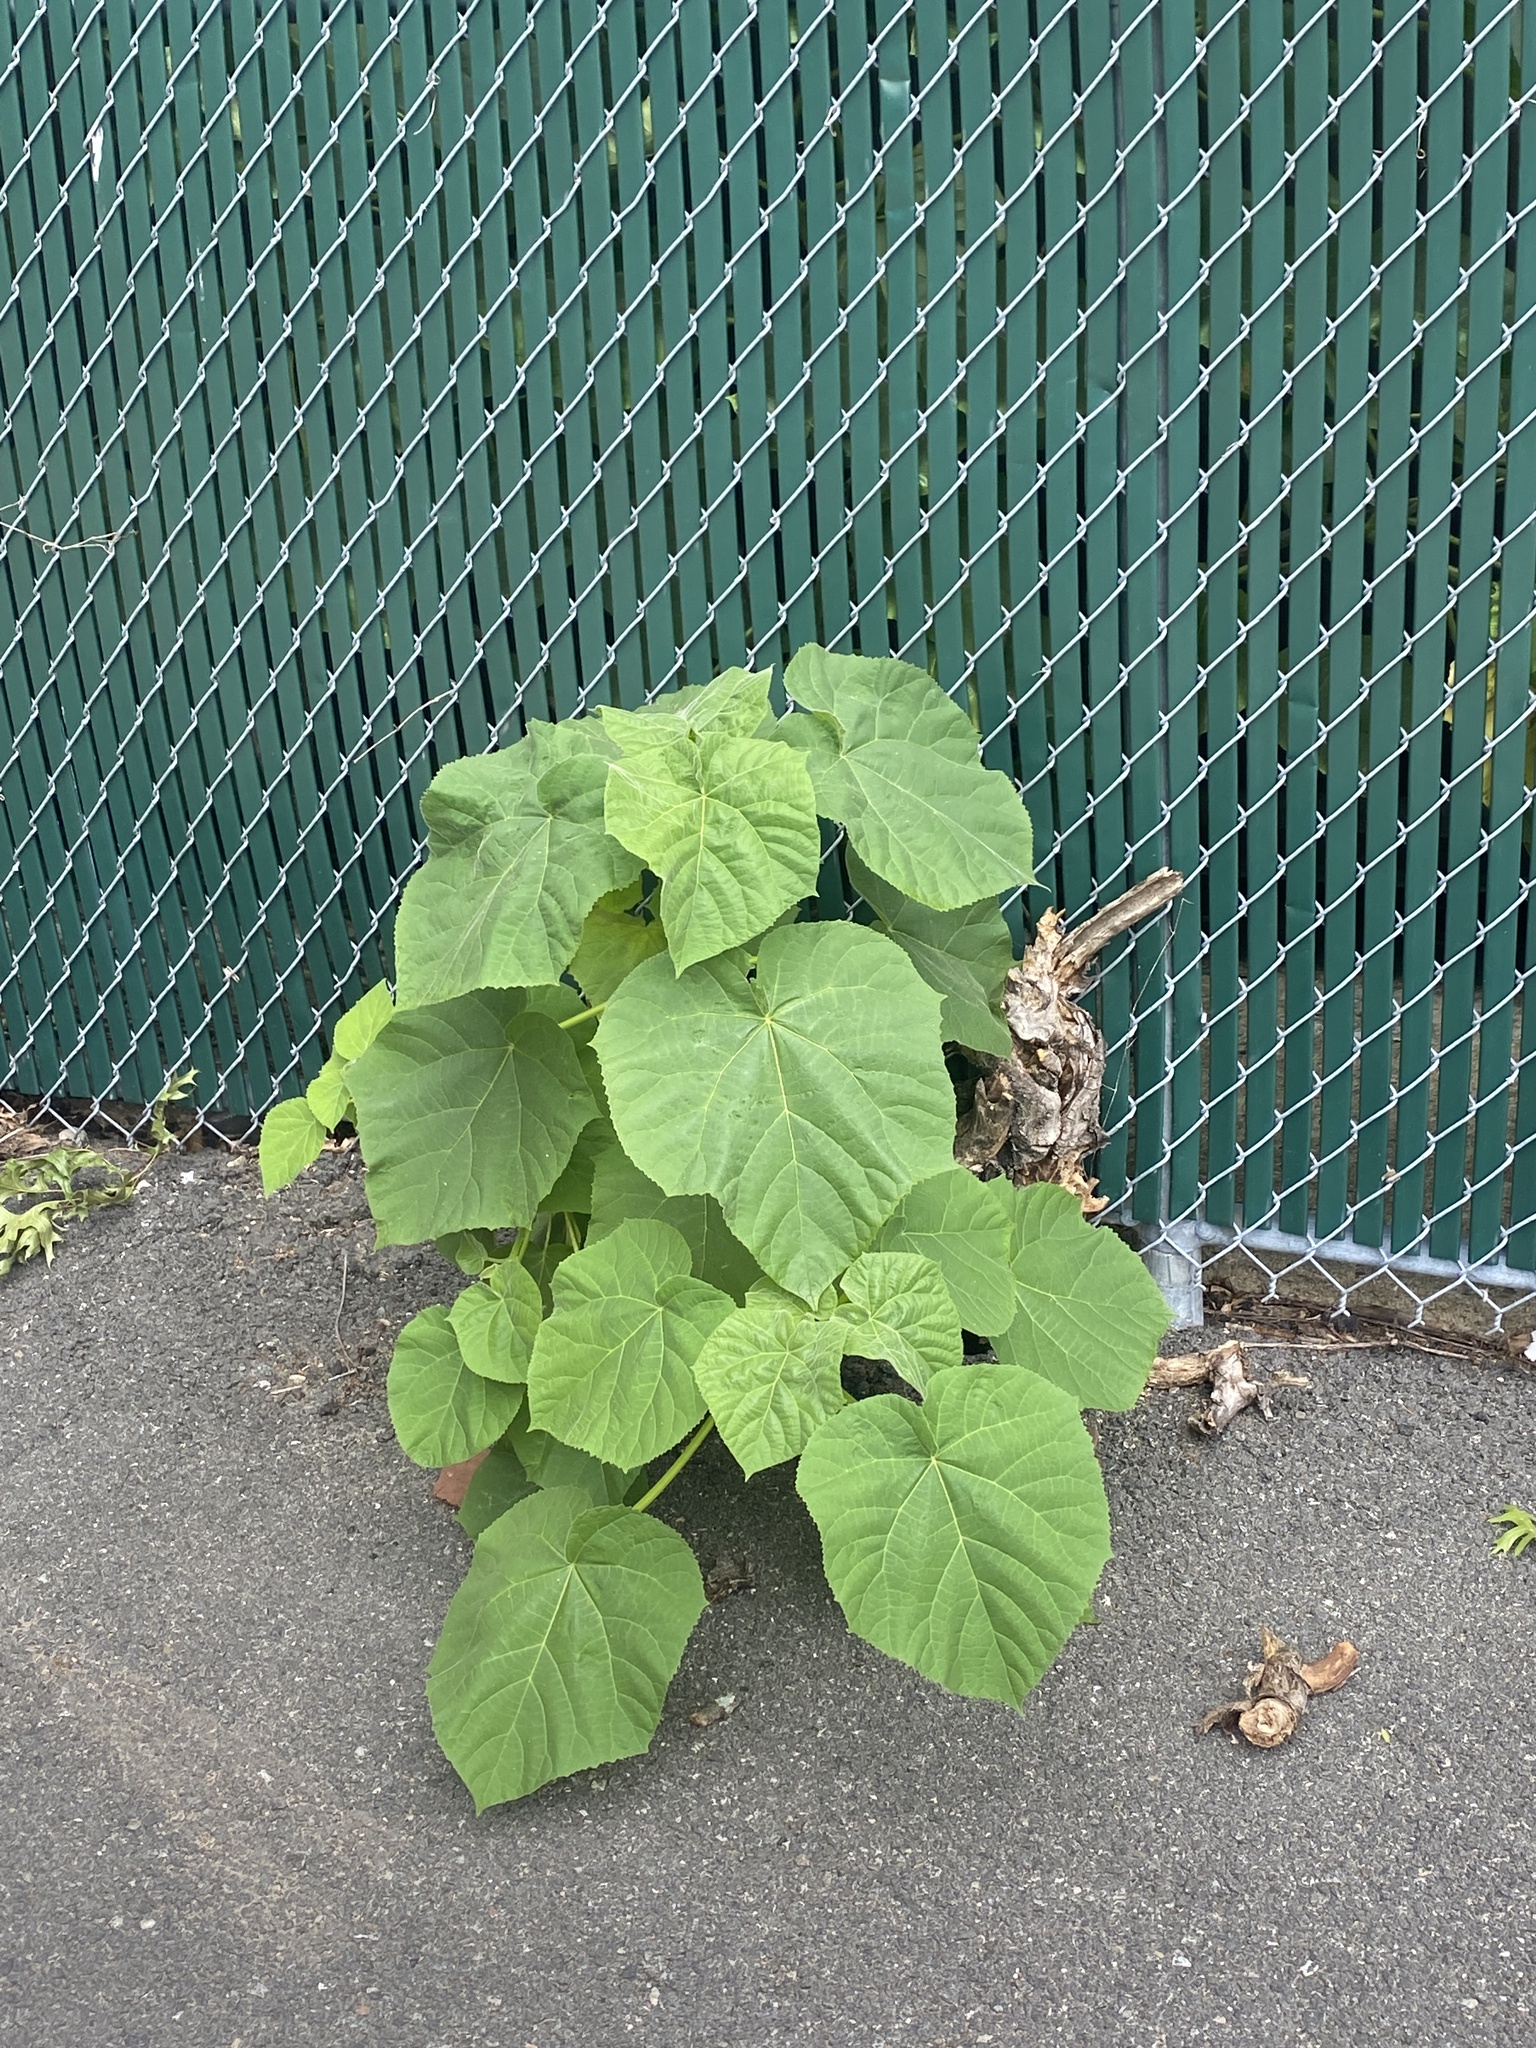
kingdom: Plantae
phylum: Tracheophyta
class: Magnoliopsida
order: Lamiales
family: Paulowniaceae
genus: Paulownia
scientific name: Paulownia tomentosa
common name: Foxglove-tree
